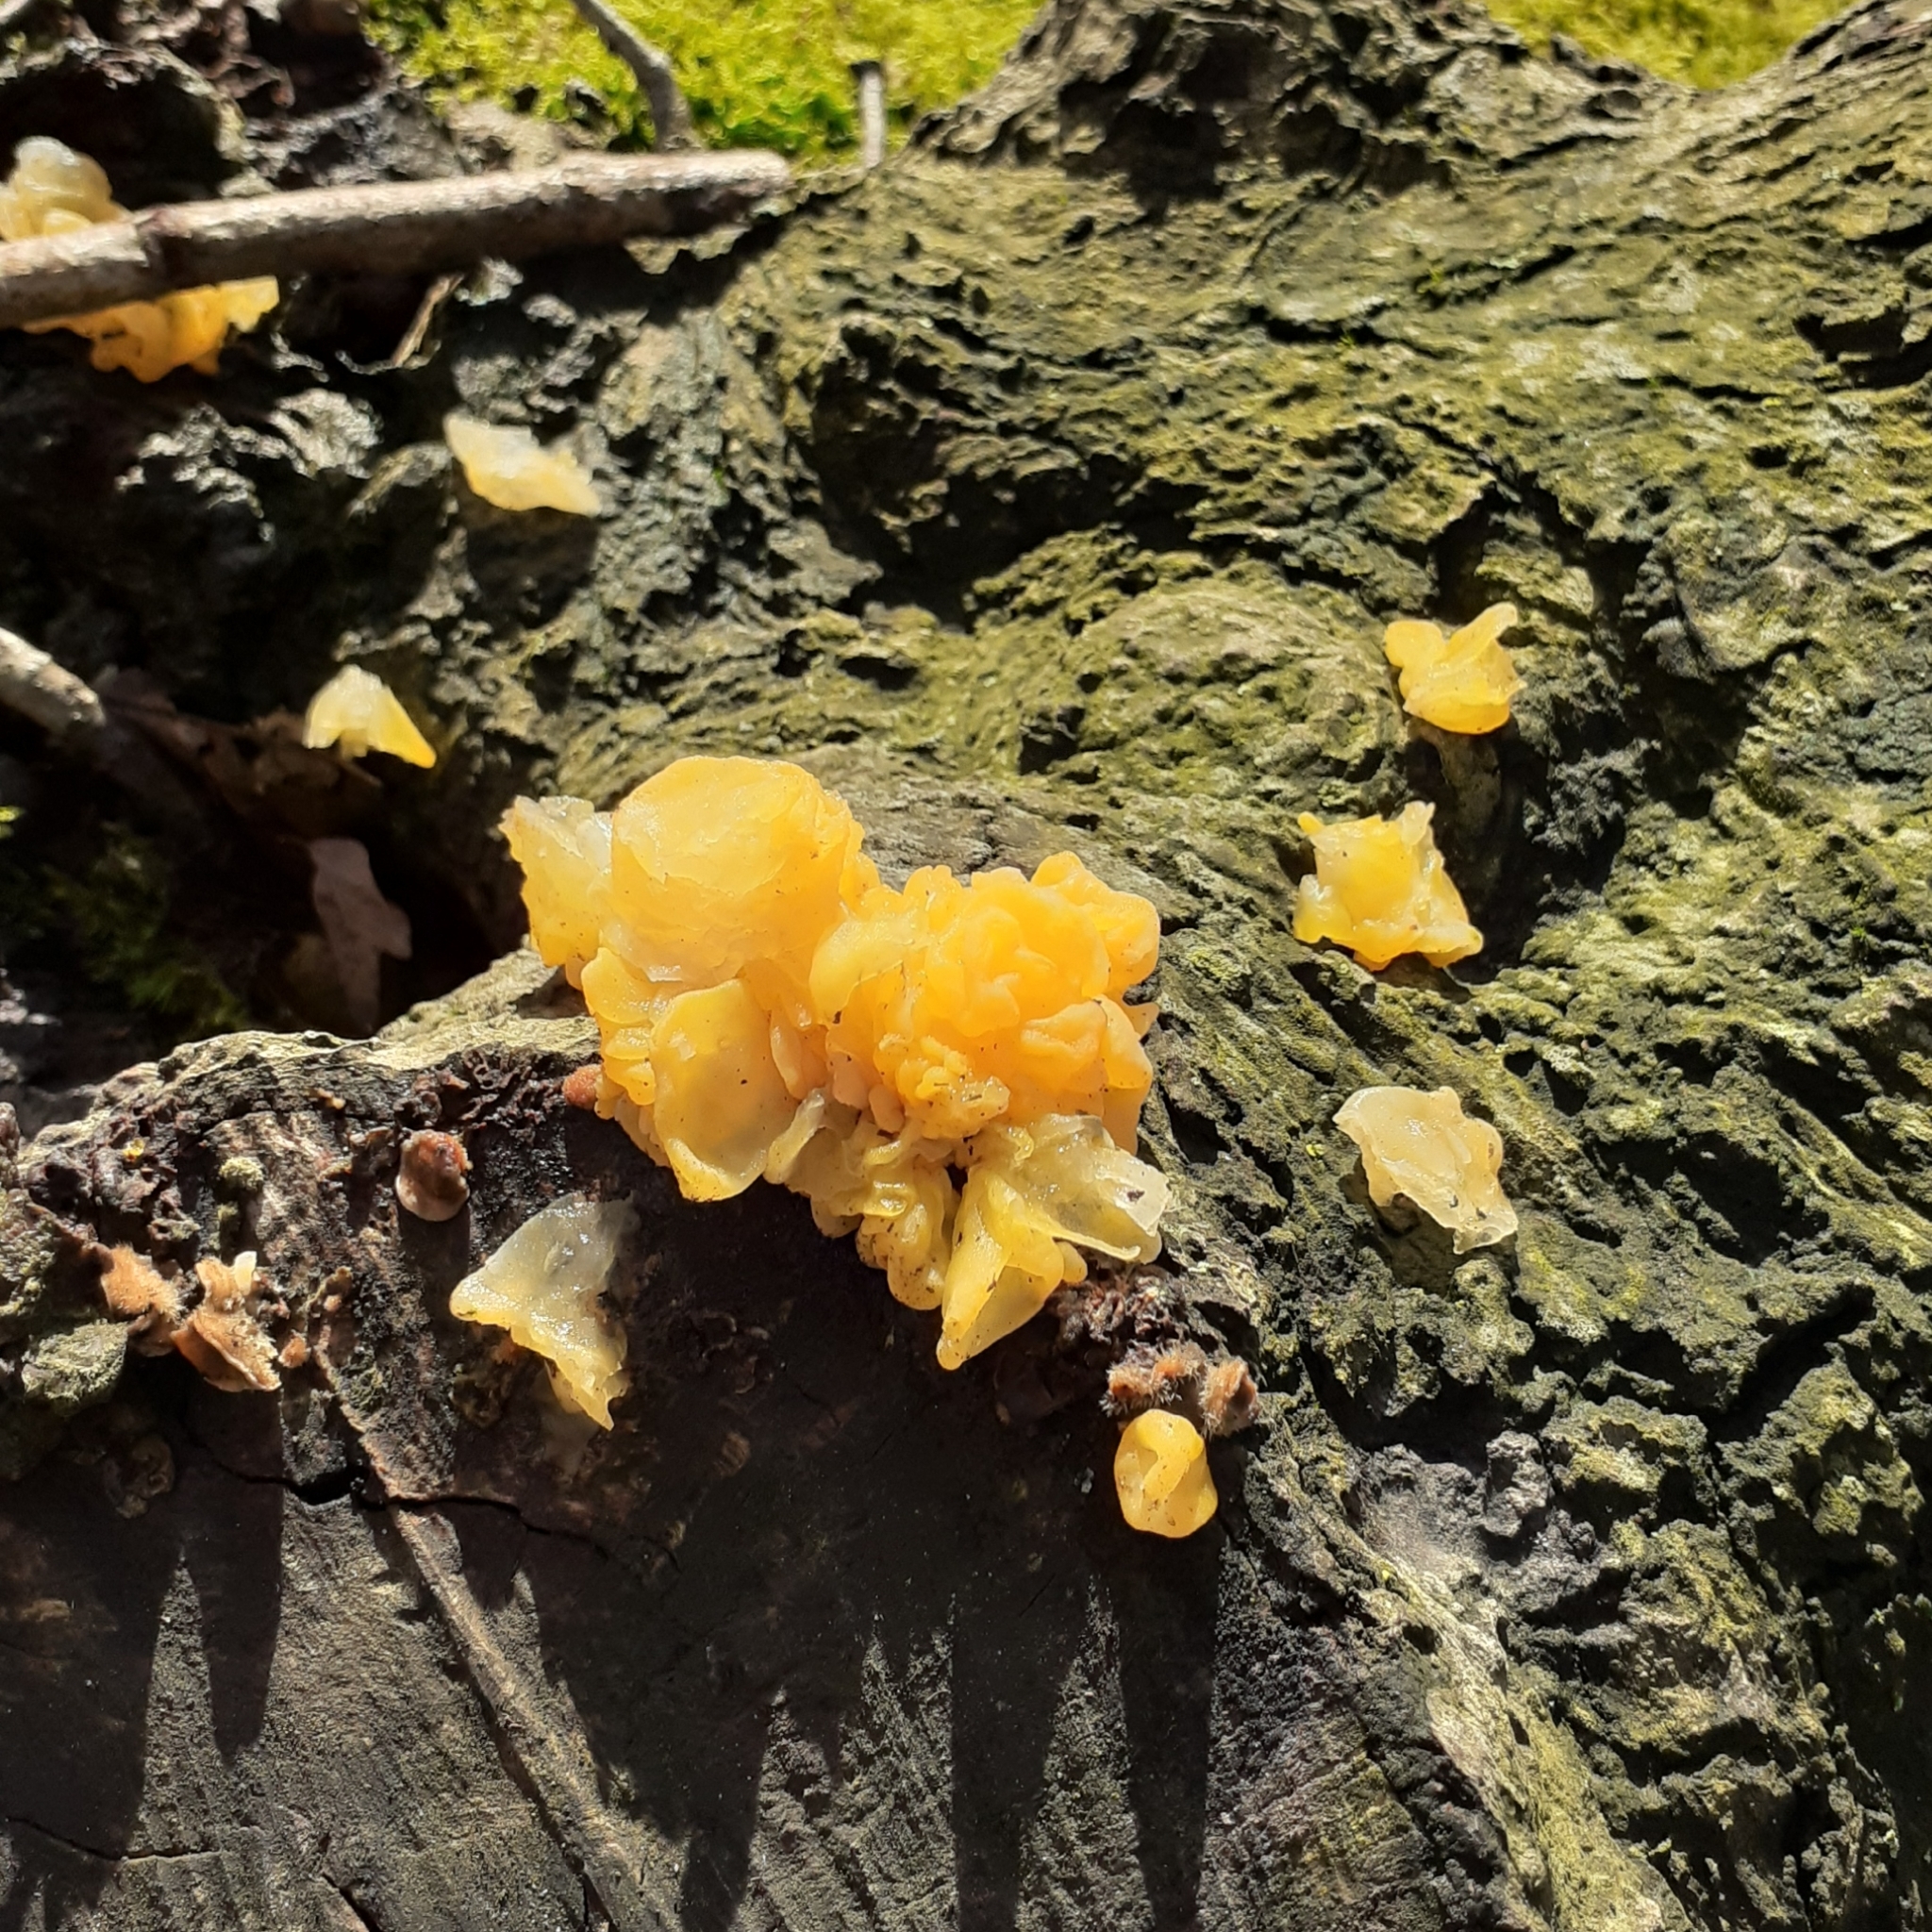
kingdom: Fungi
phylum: Basidiomycota
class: Tremellomycetes
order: Tremellales
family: Naemateliaceae
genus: Naematelia
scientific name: Naematelia aurantia
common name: Golden ear
